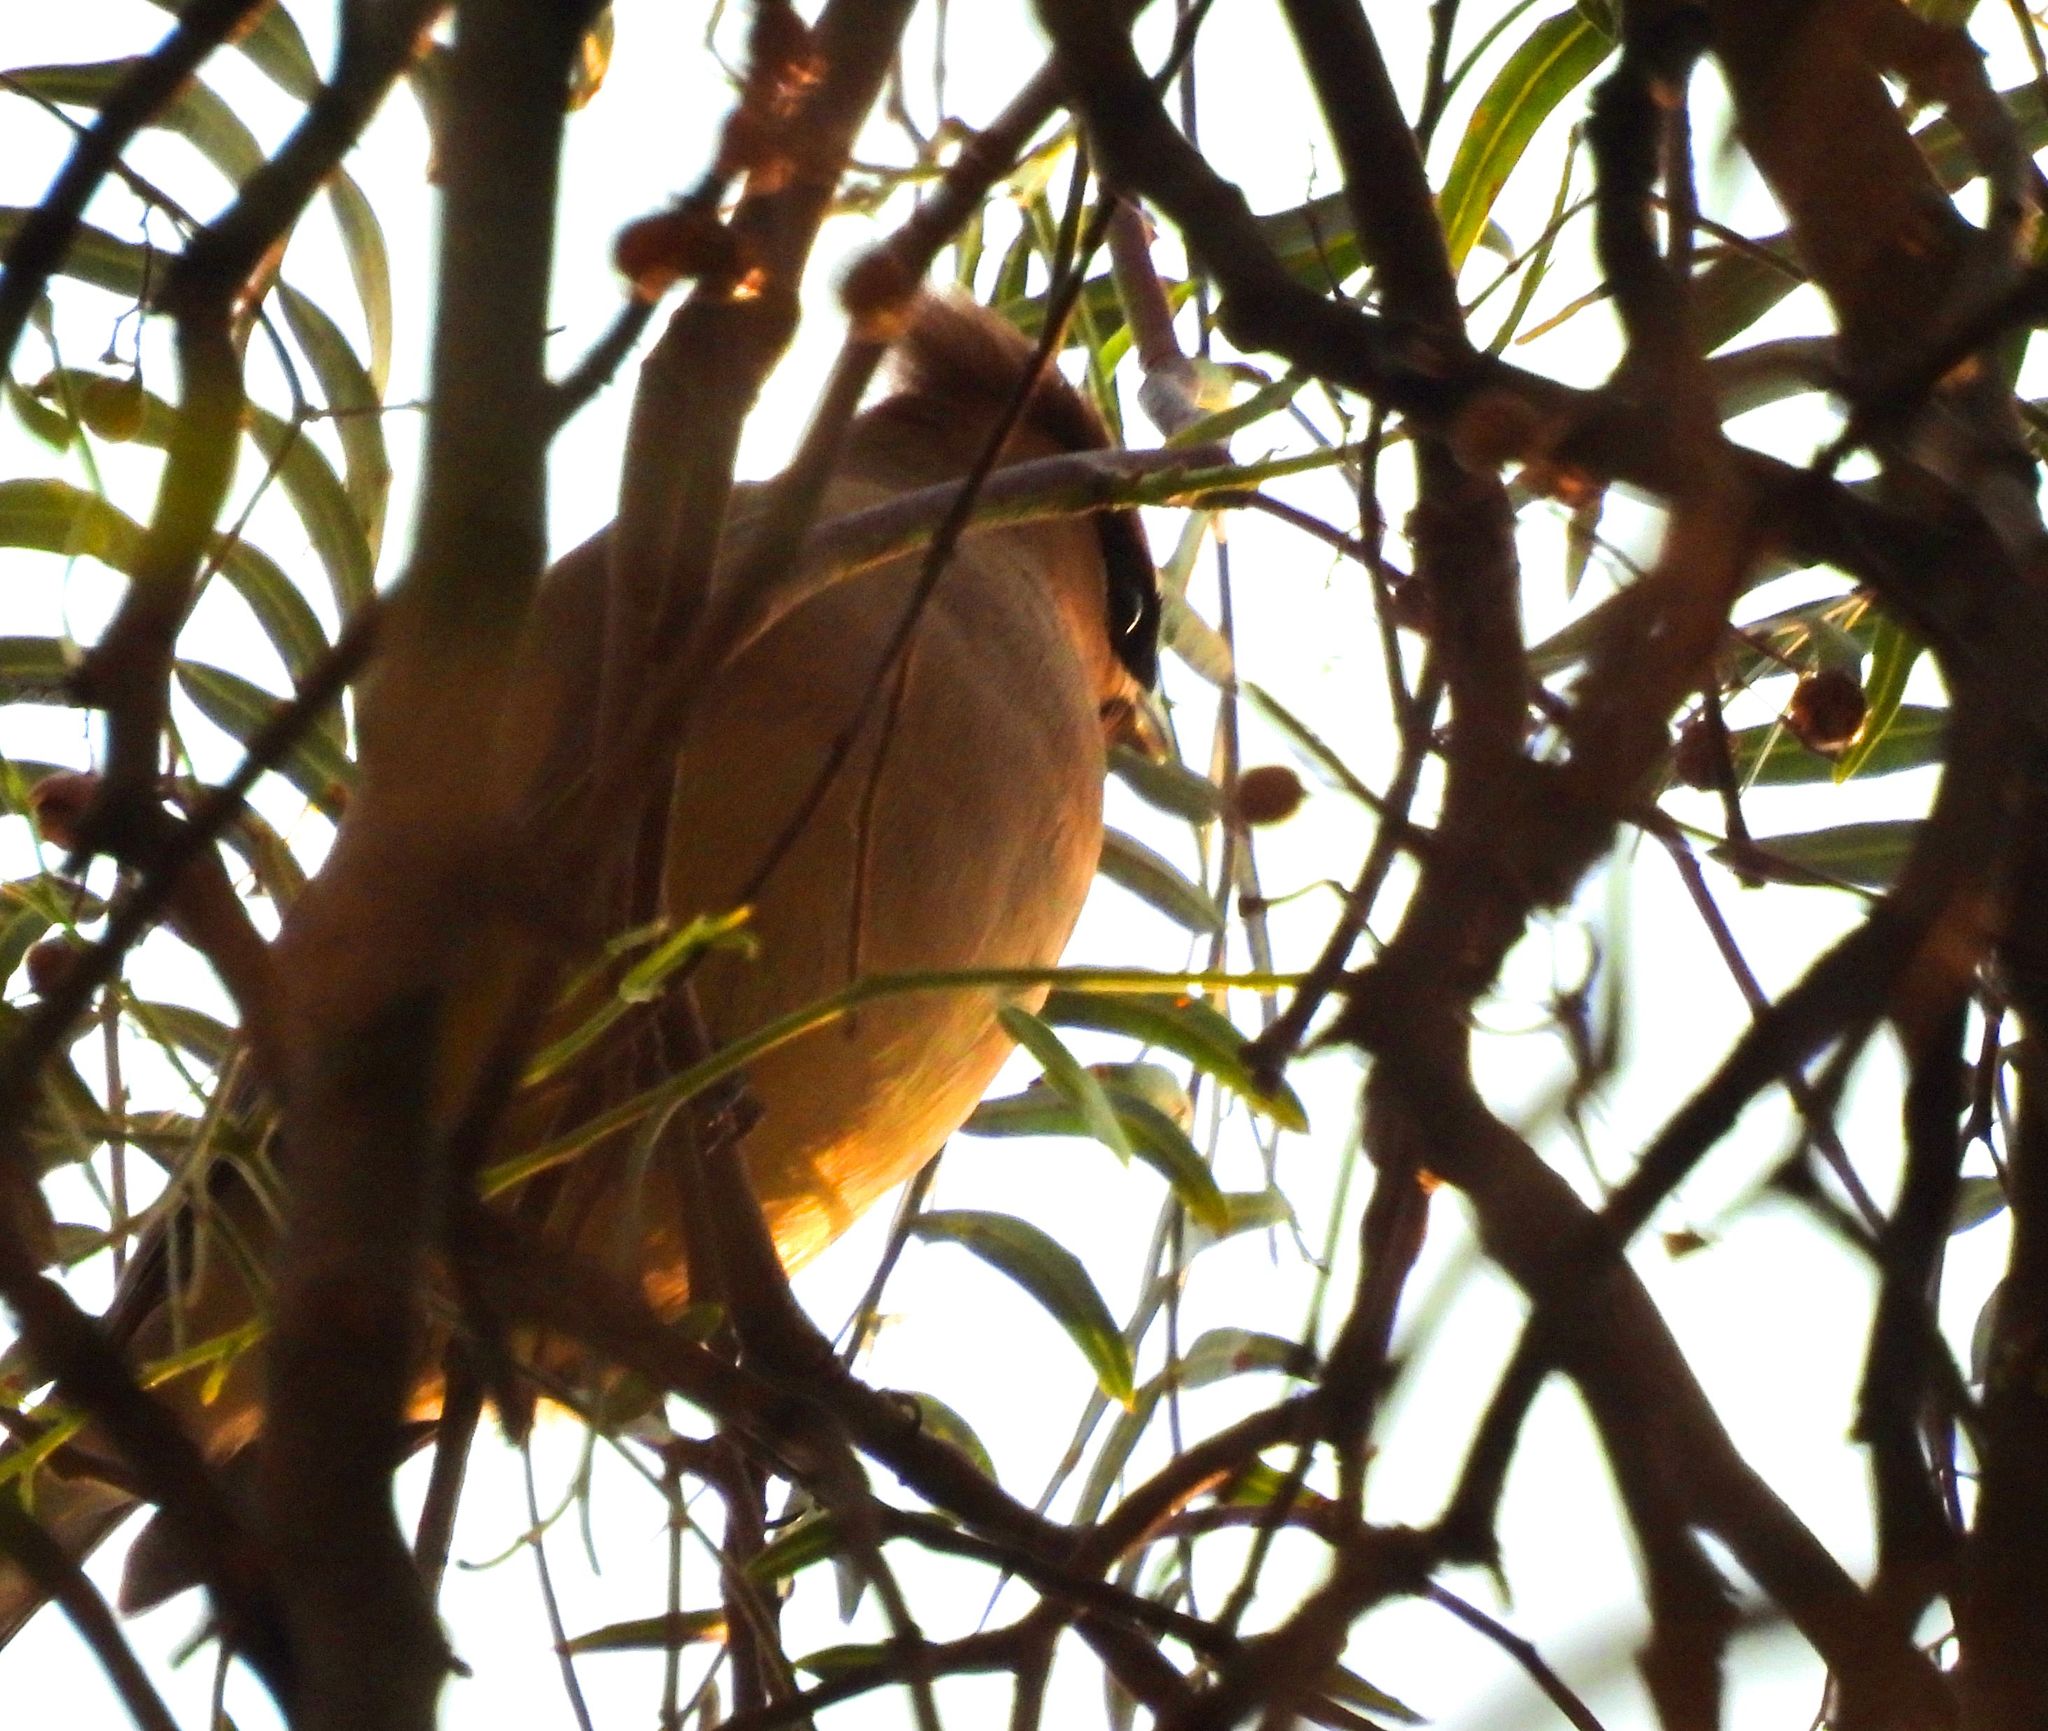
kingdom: Animalia
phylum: Chordata
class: Aves
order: Passeriformes
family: Bombycillidae
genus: Bombycilla
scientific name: Bombycilla cedrorum
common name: Cedar waxwing
